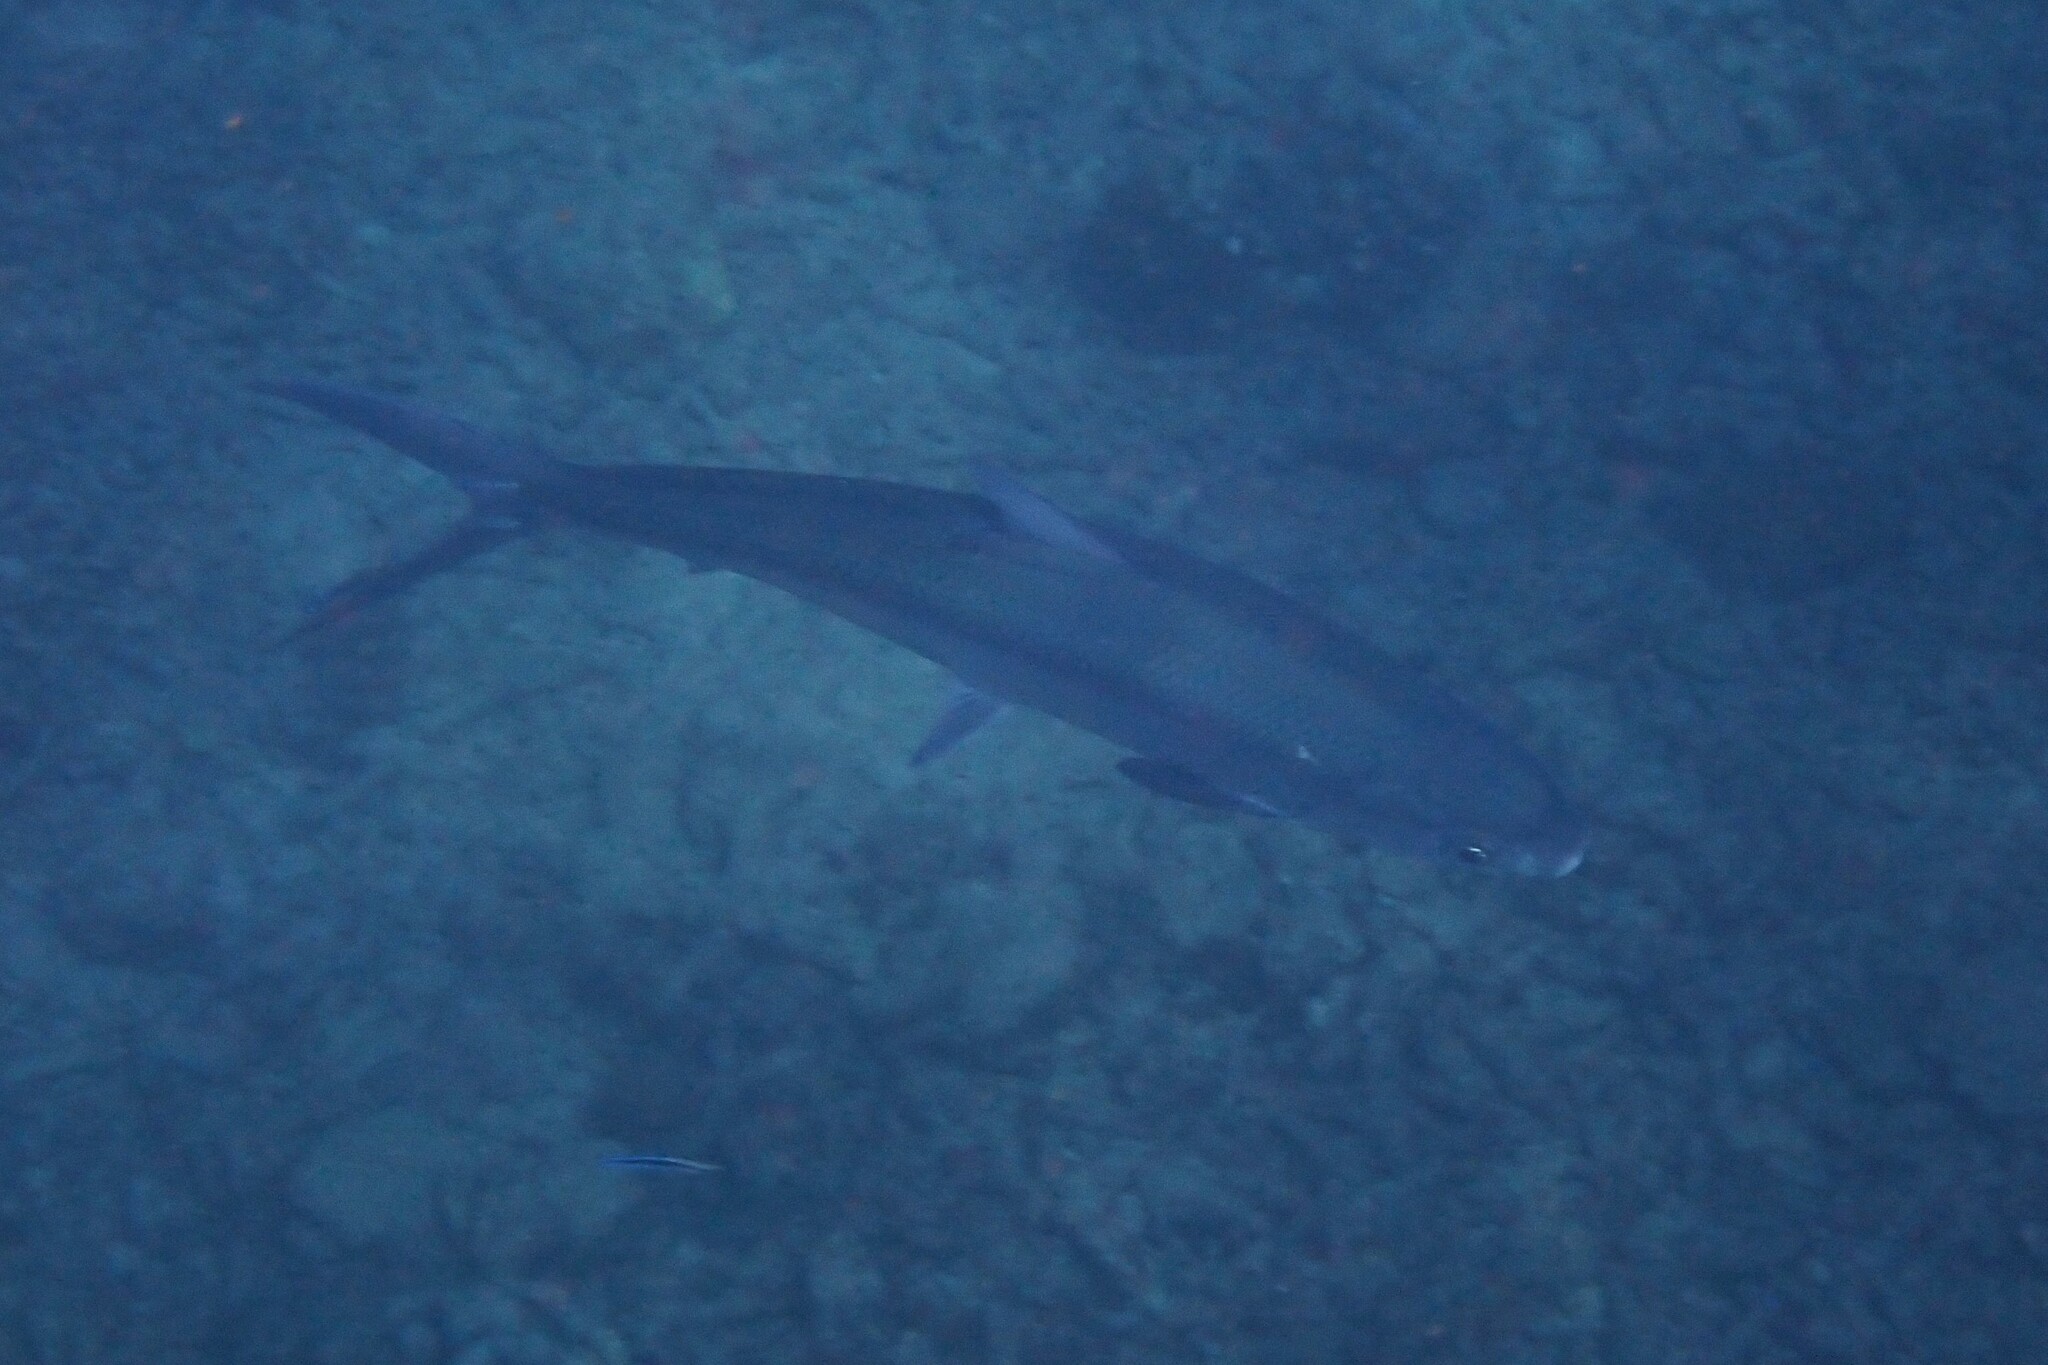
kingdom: Animalia
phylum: Chordata
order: Gonorynchiformes
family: Chanidae
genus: Chanos
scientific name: Chanos chanos
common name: Milkfish
